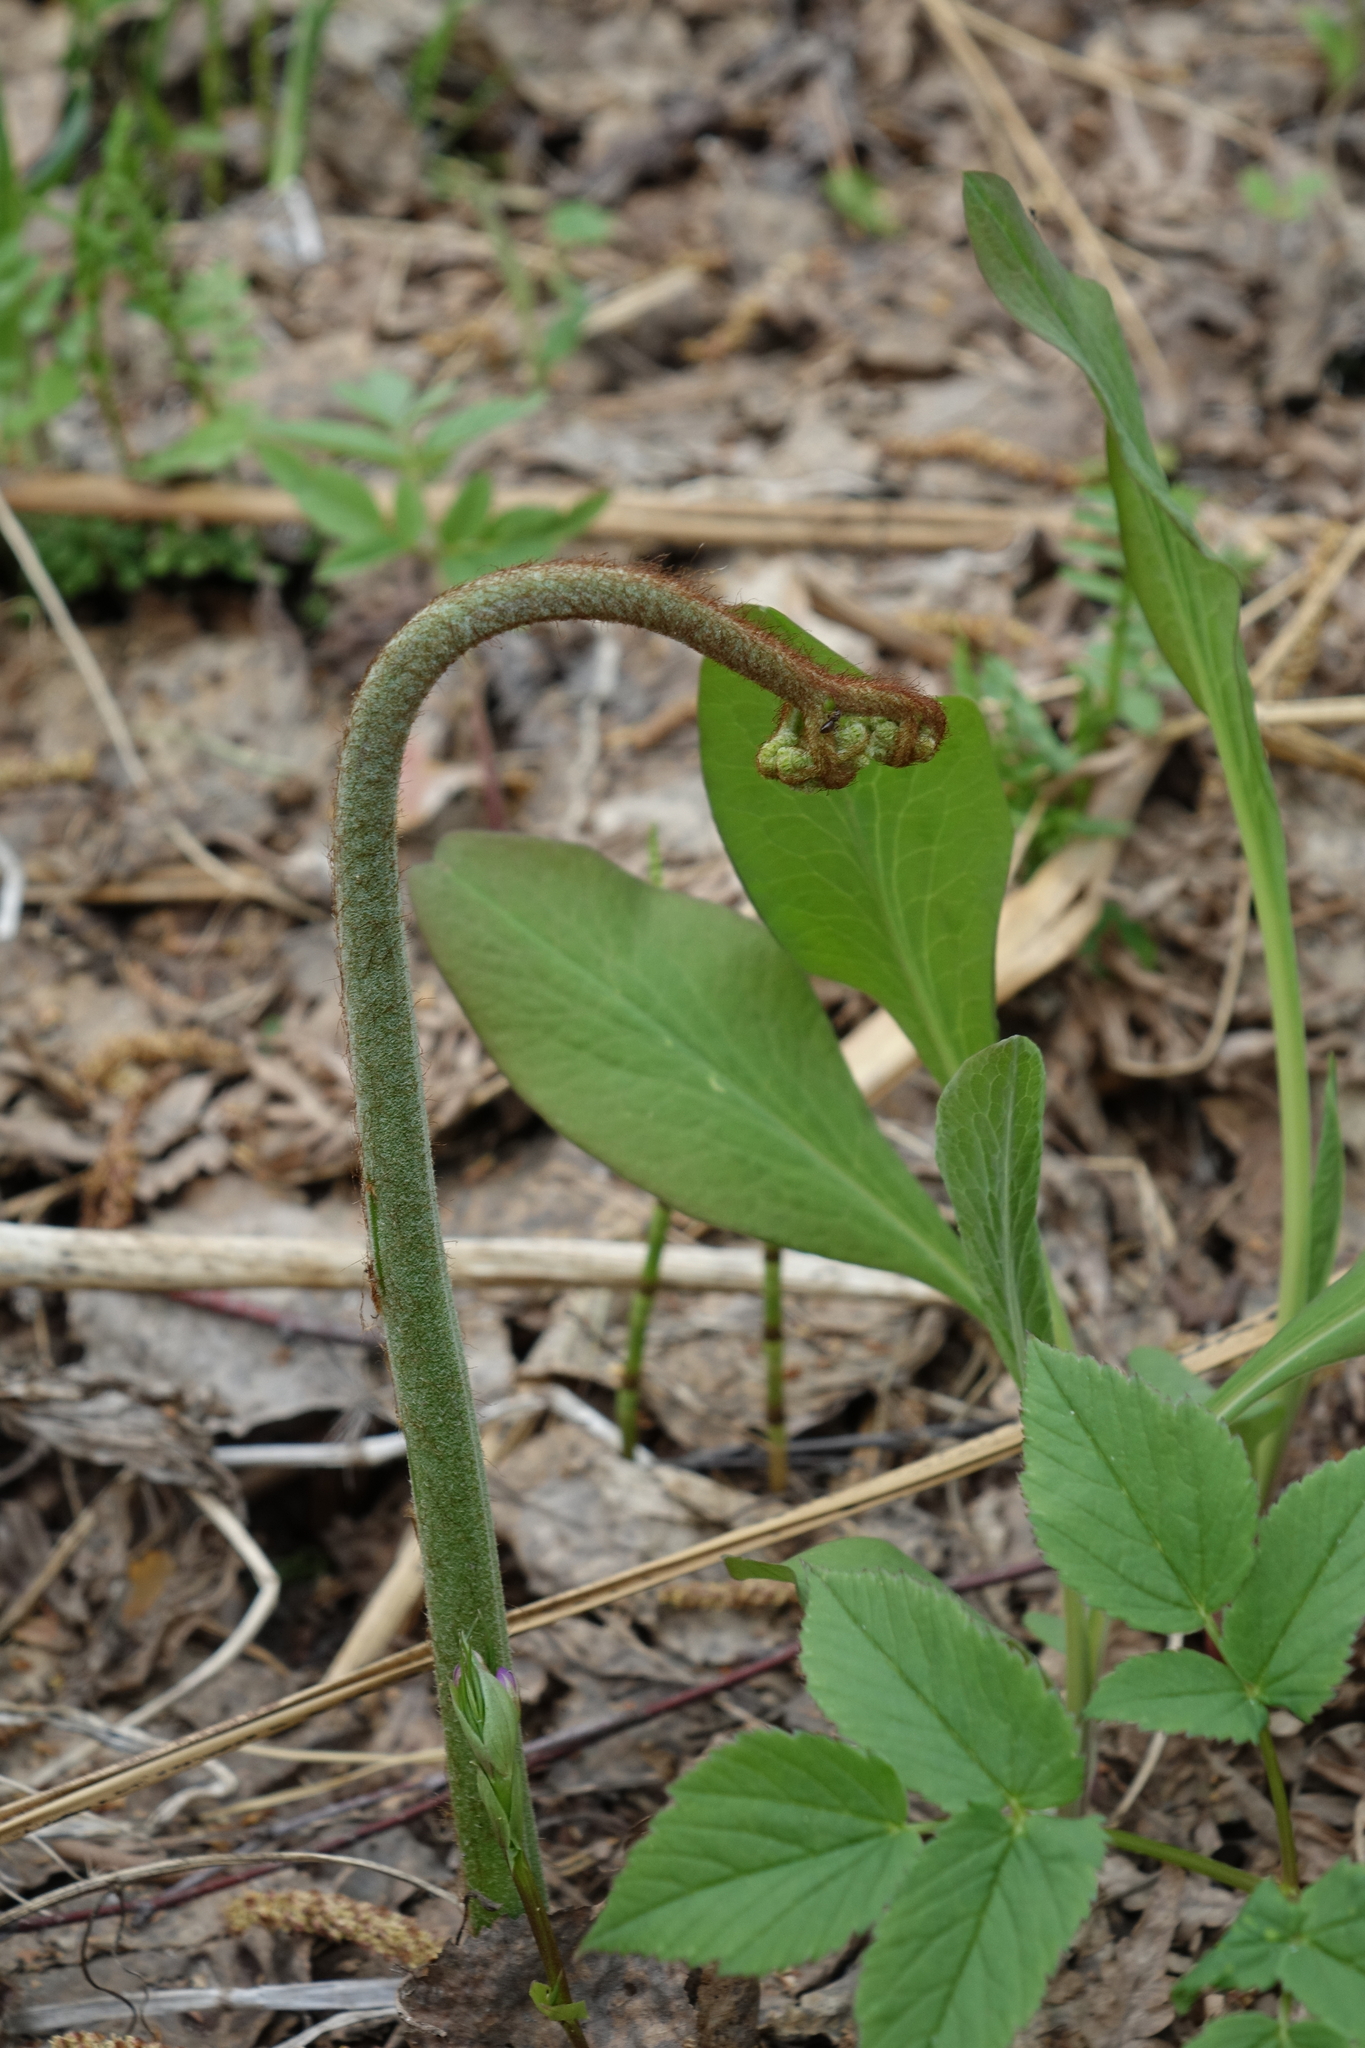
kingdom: Plantae
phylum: Tracheophyta
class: Polypodiopsida
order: Polypodiales
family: Dennstaedtiaceae
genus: Pteridium
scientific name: Pteridium aquilinum
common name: Bracken
